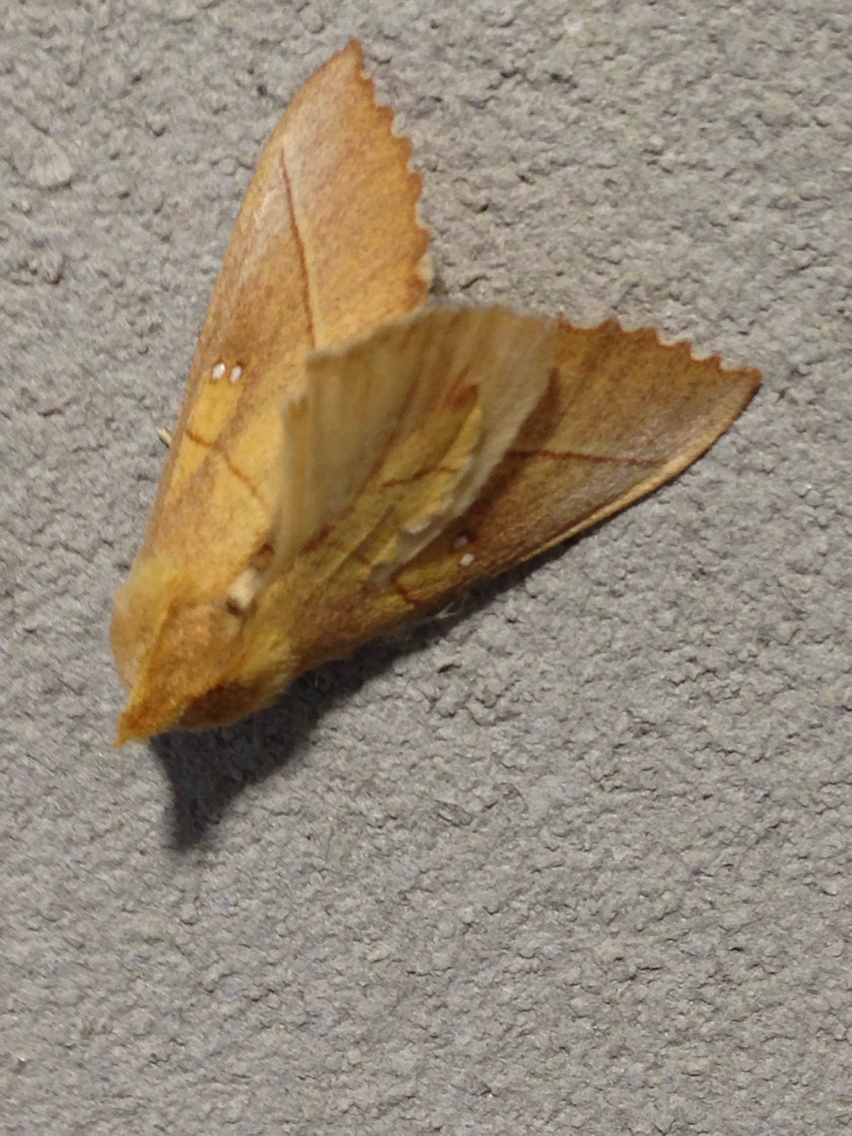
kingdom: Animalia
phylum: Arthropoda
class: Insecta
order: Lepidoptera
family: Notodontidae
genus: Nadata
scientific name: Nadata gibbosa
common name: White-dotted prominent
